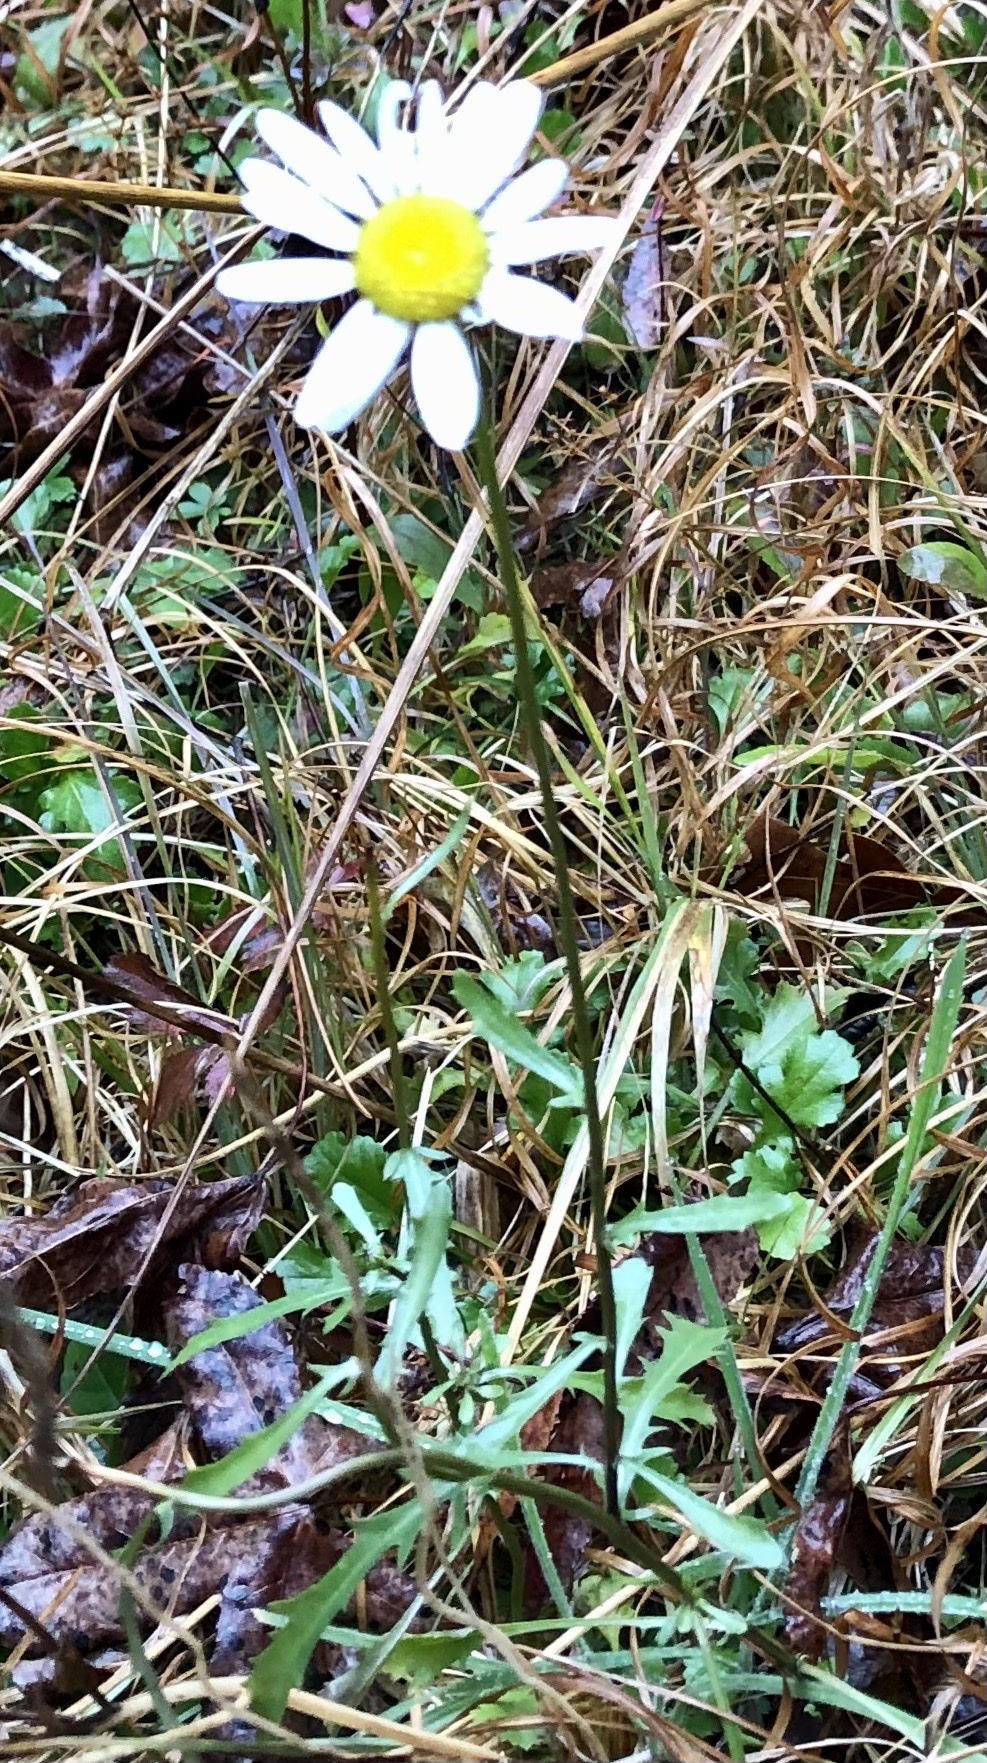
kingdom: Plantae
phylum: Tracheophyta
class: Magnoliopsida
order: Asterales
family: Asteraceae
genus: Leucanthemum
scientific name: Leucanthemum vulgare
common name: Oxeye daisy
